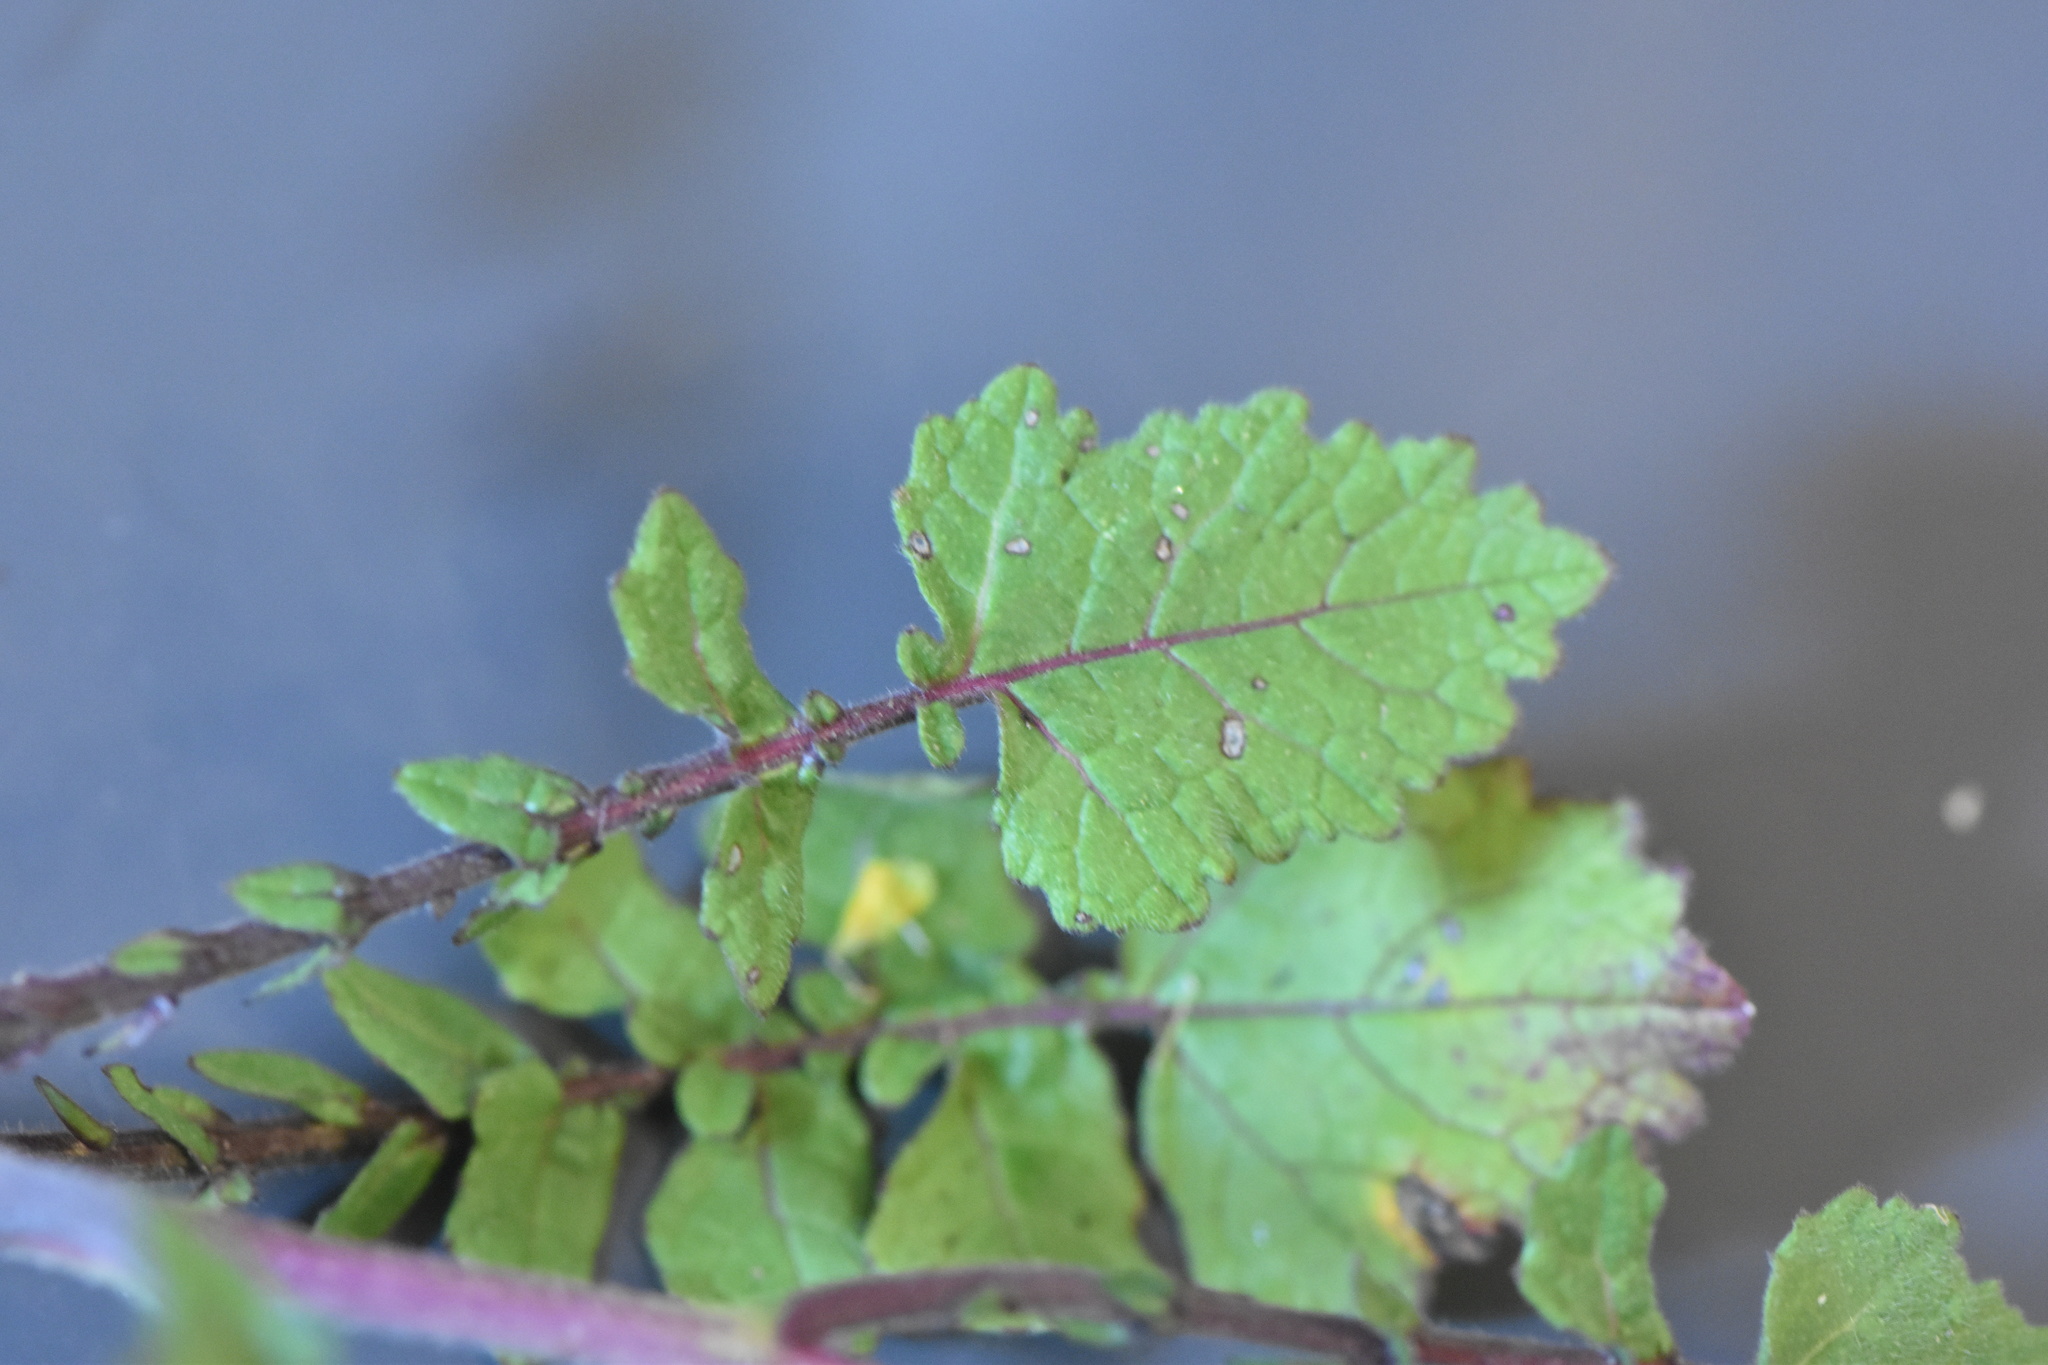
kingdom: Plantae
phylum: Tracheophyta
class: Magnoliopsida
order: Brassicales
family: Brassicaceae
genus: Hirschfeldia
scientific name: Hirschfeldia incana
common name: Hoary mustard
